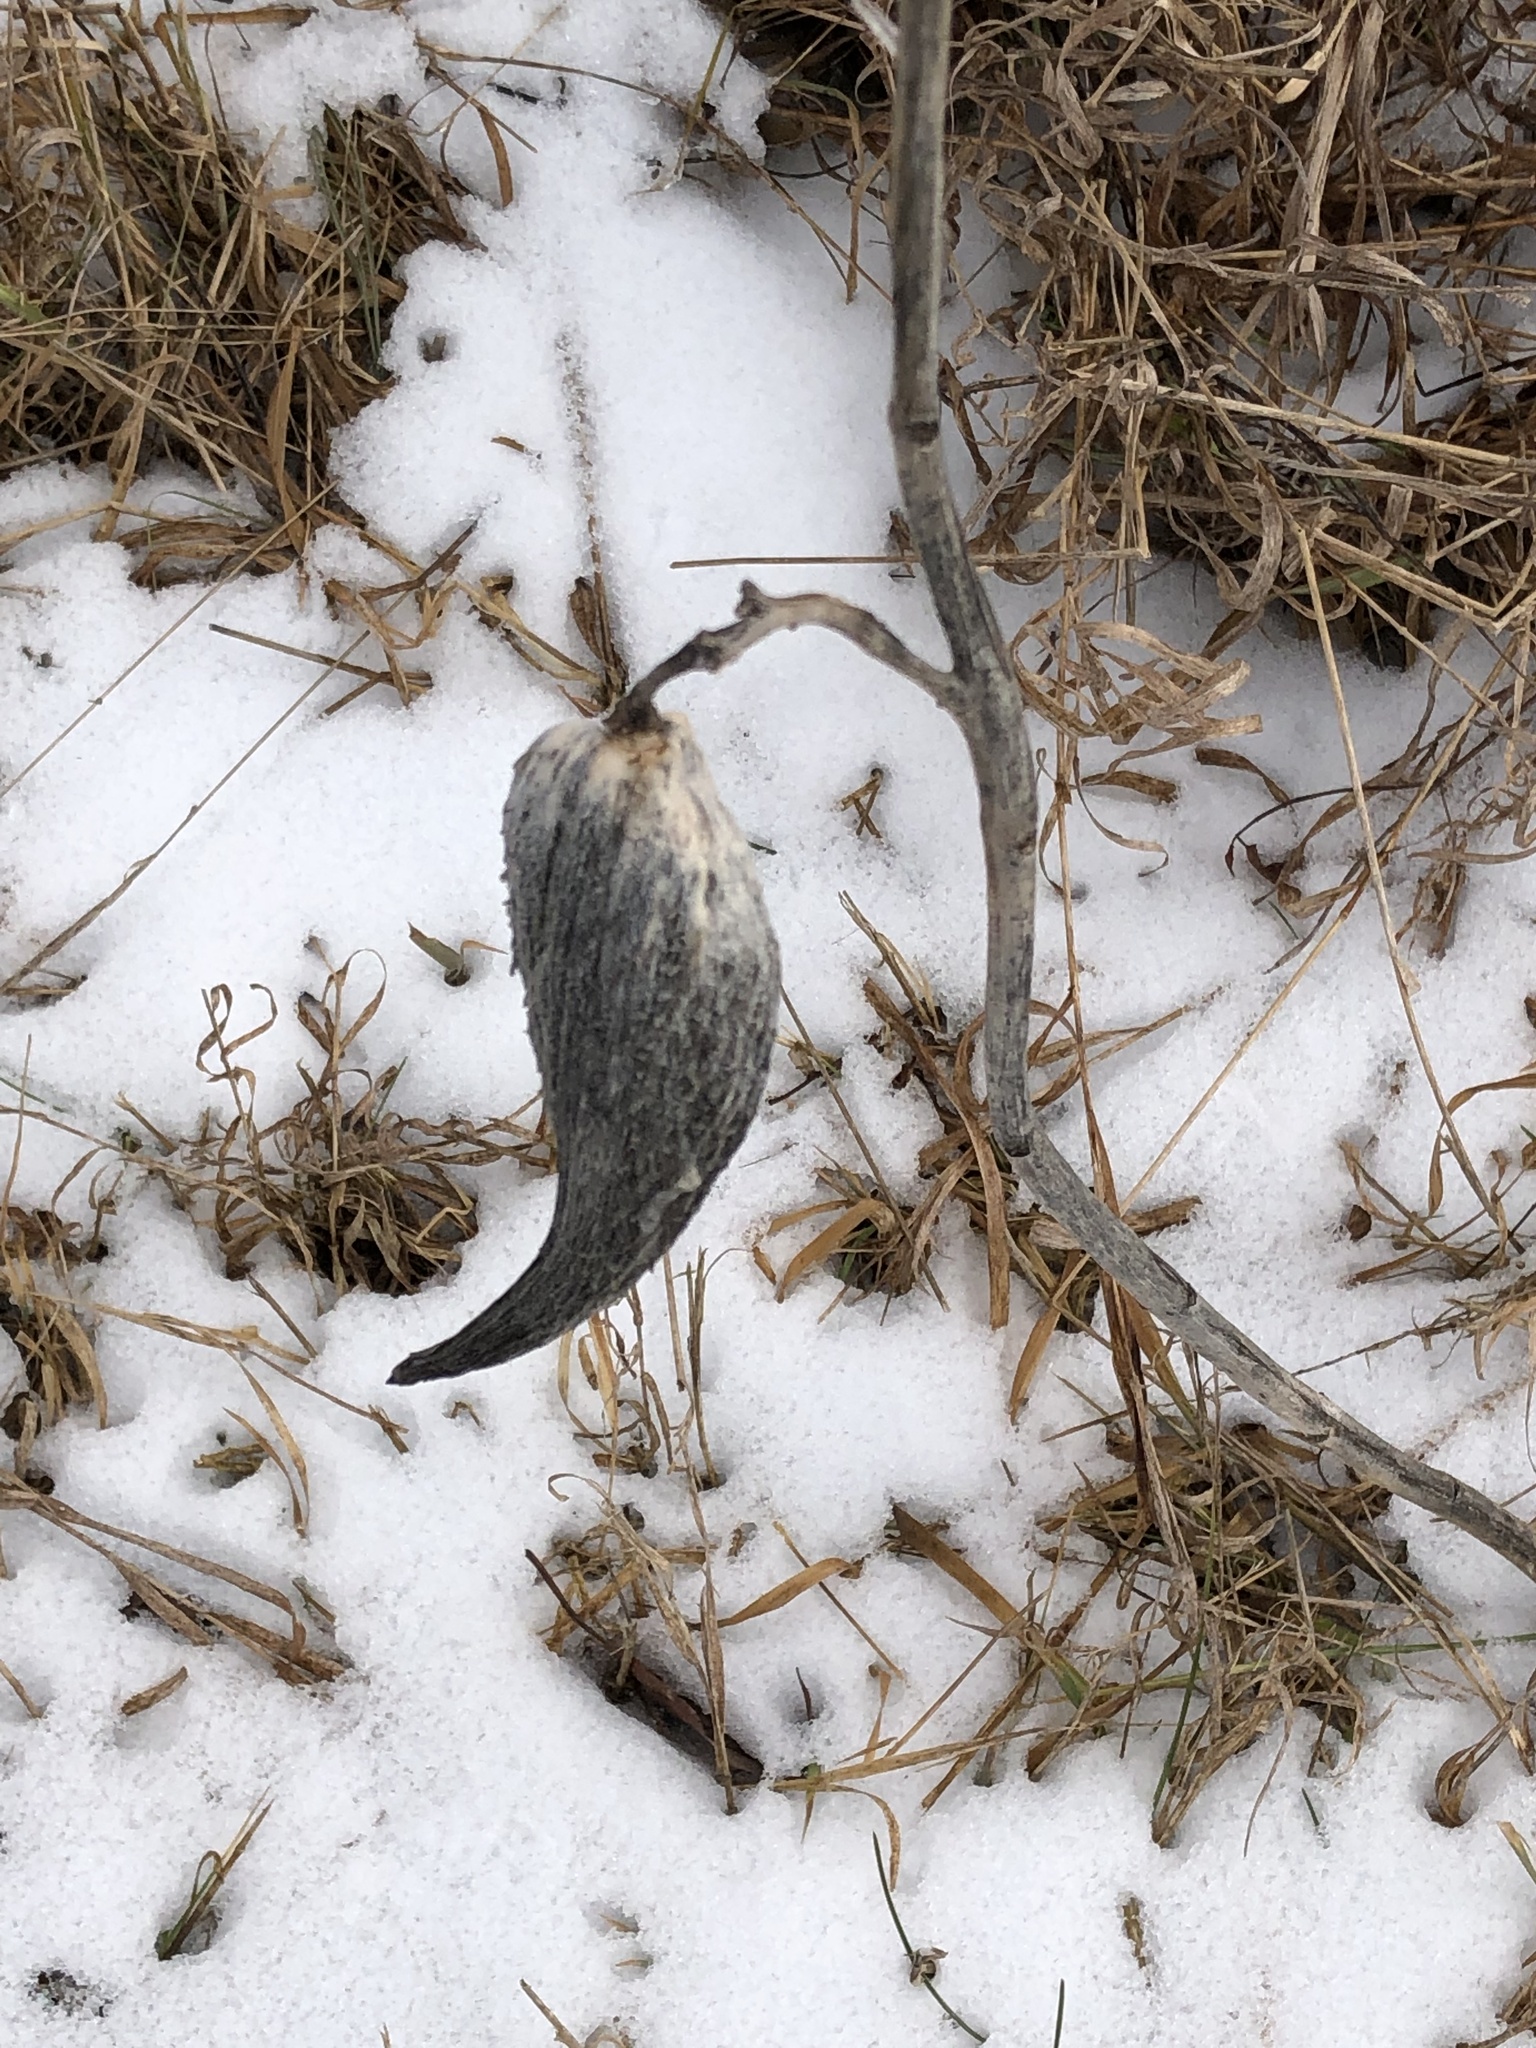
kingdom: Plantae
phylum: Tracheophyta
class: Magnoliopsida
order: Gentianales
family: Apocynaceae
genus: Asclepias
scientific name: Asclepias syriaca
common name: Common milkweed
